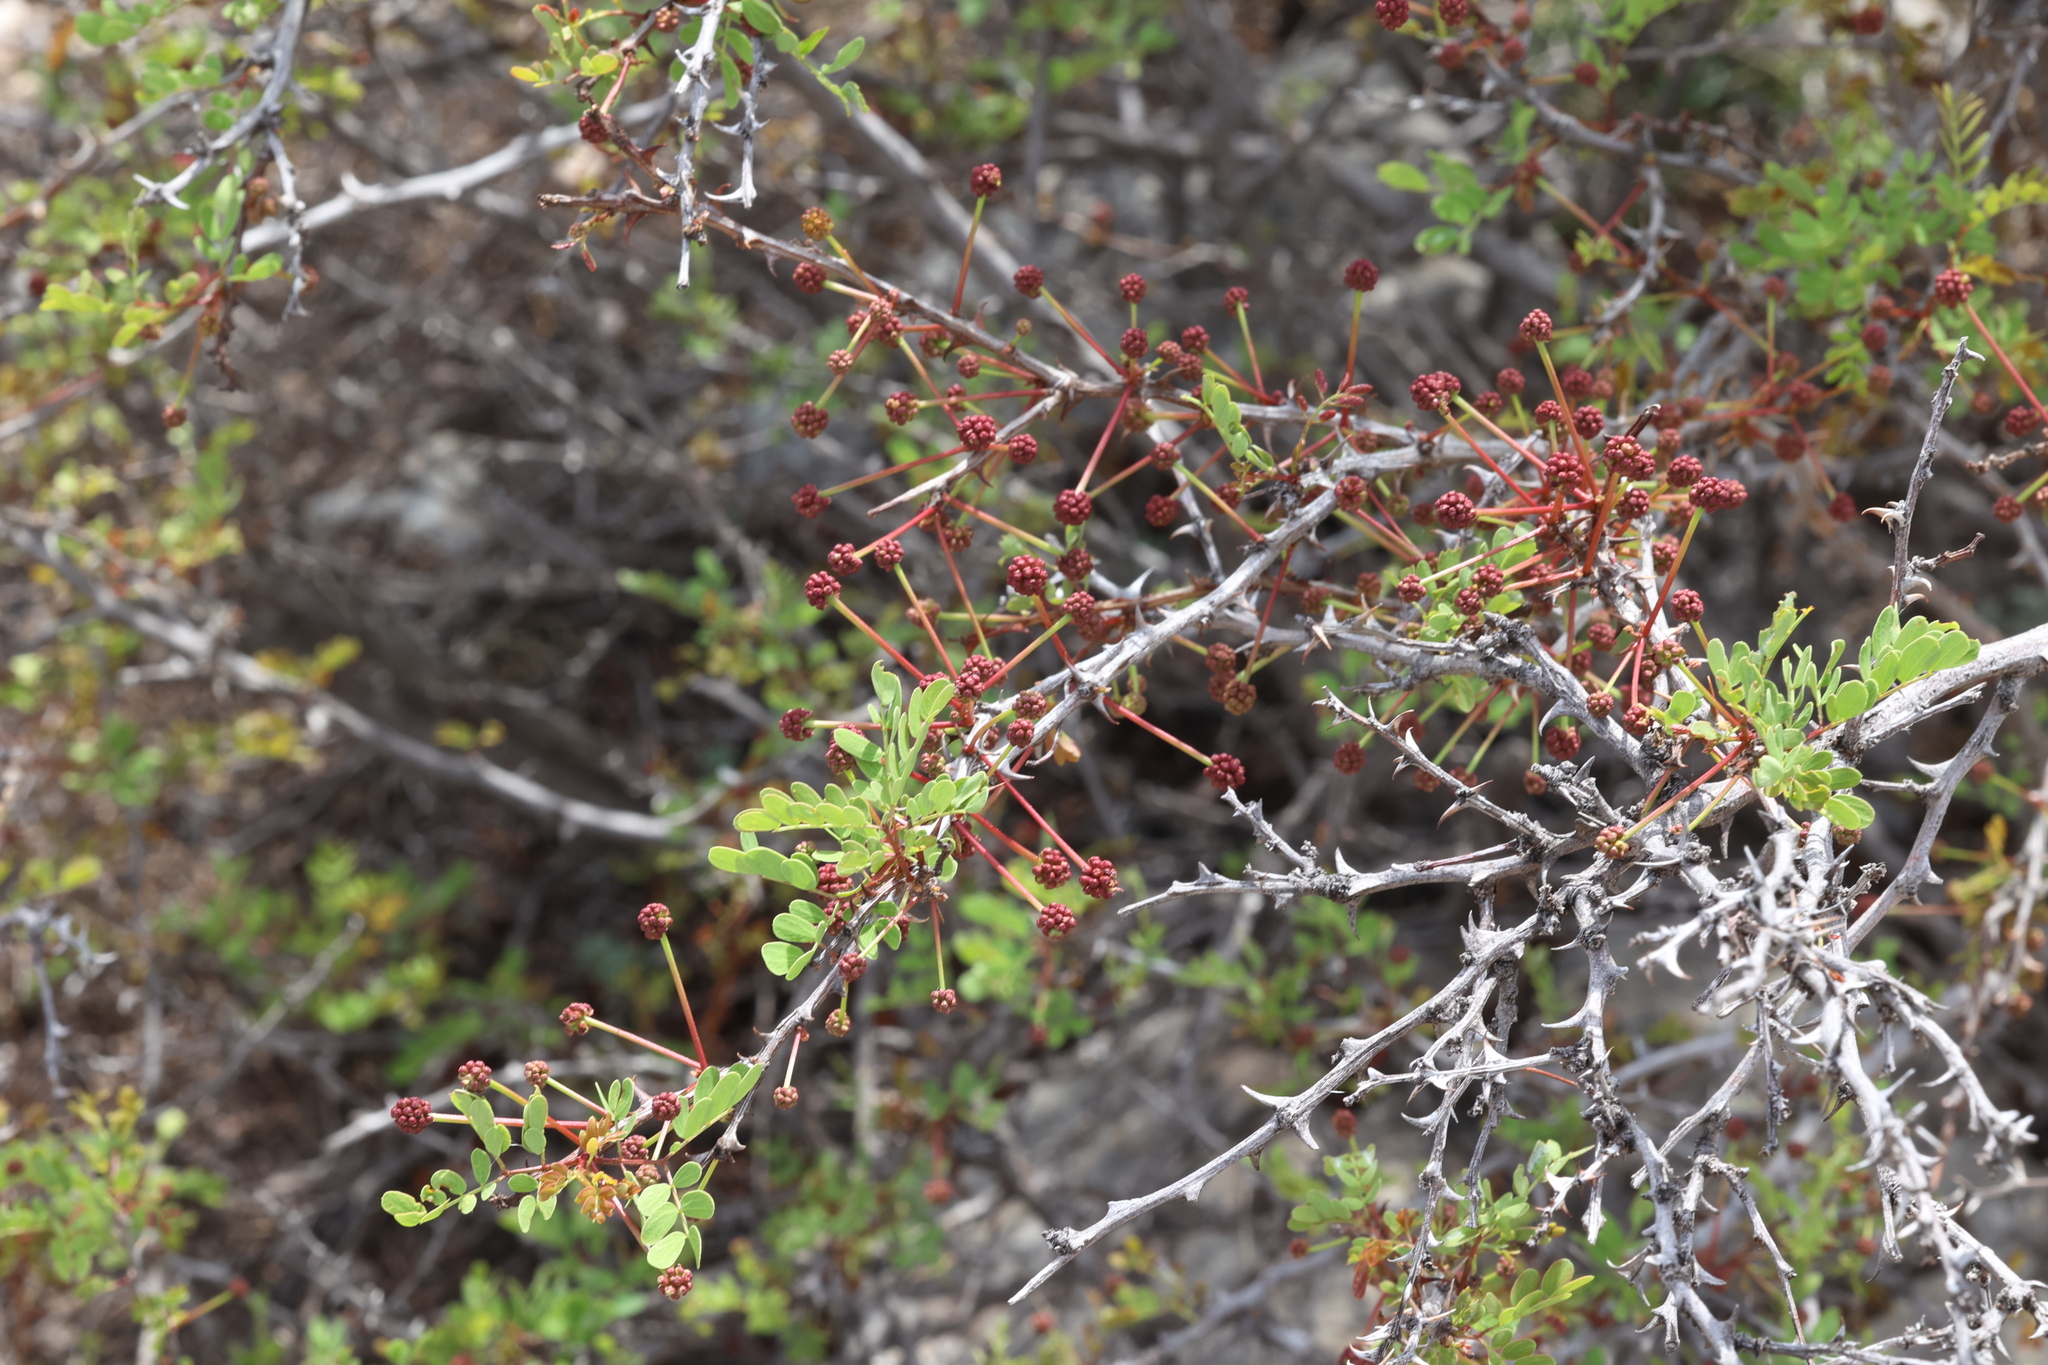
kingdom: Plantae
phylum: Tracheophyta
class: Magnoliopsida
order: Fabales
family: Fabaceae
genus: Senegalia
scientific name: Senegalia roemeriana
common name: Roemer's acacia
